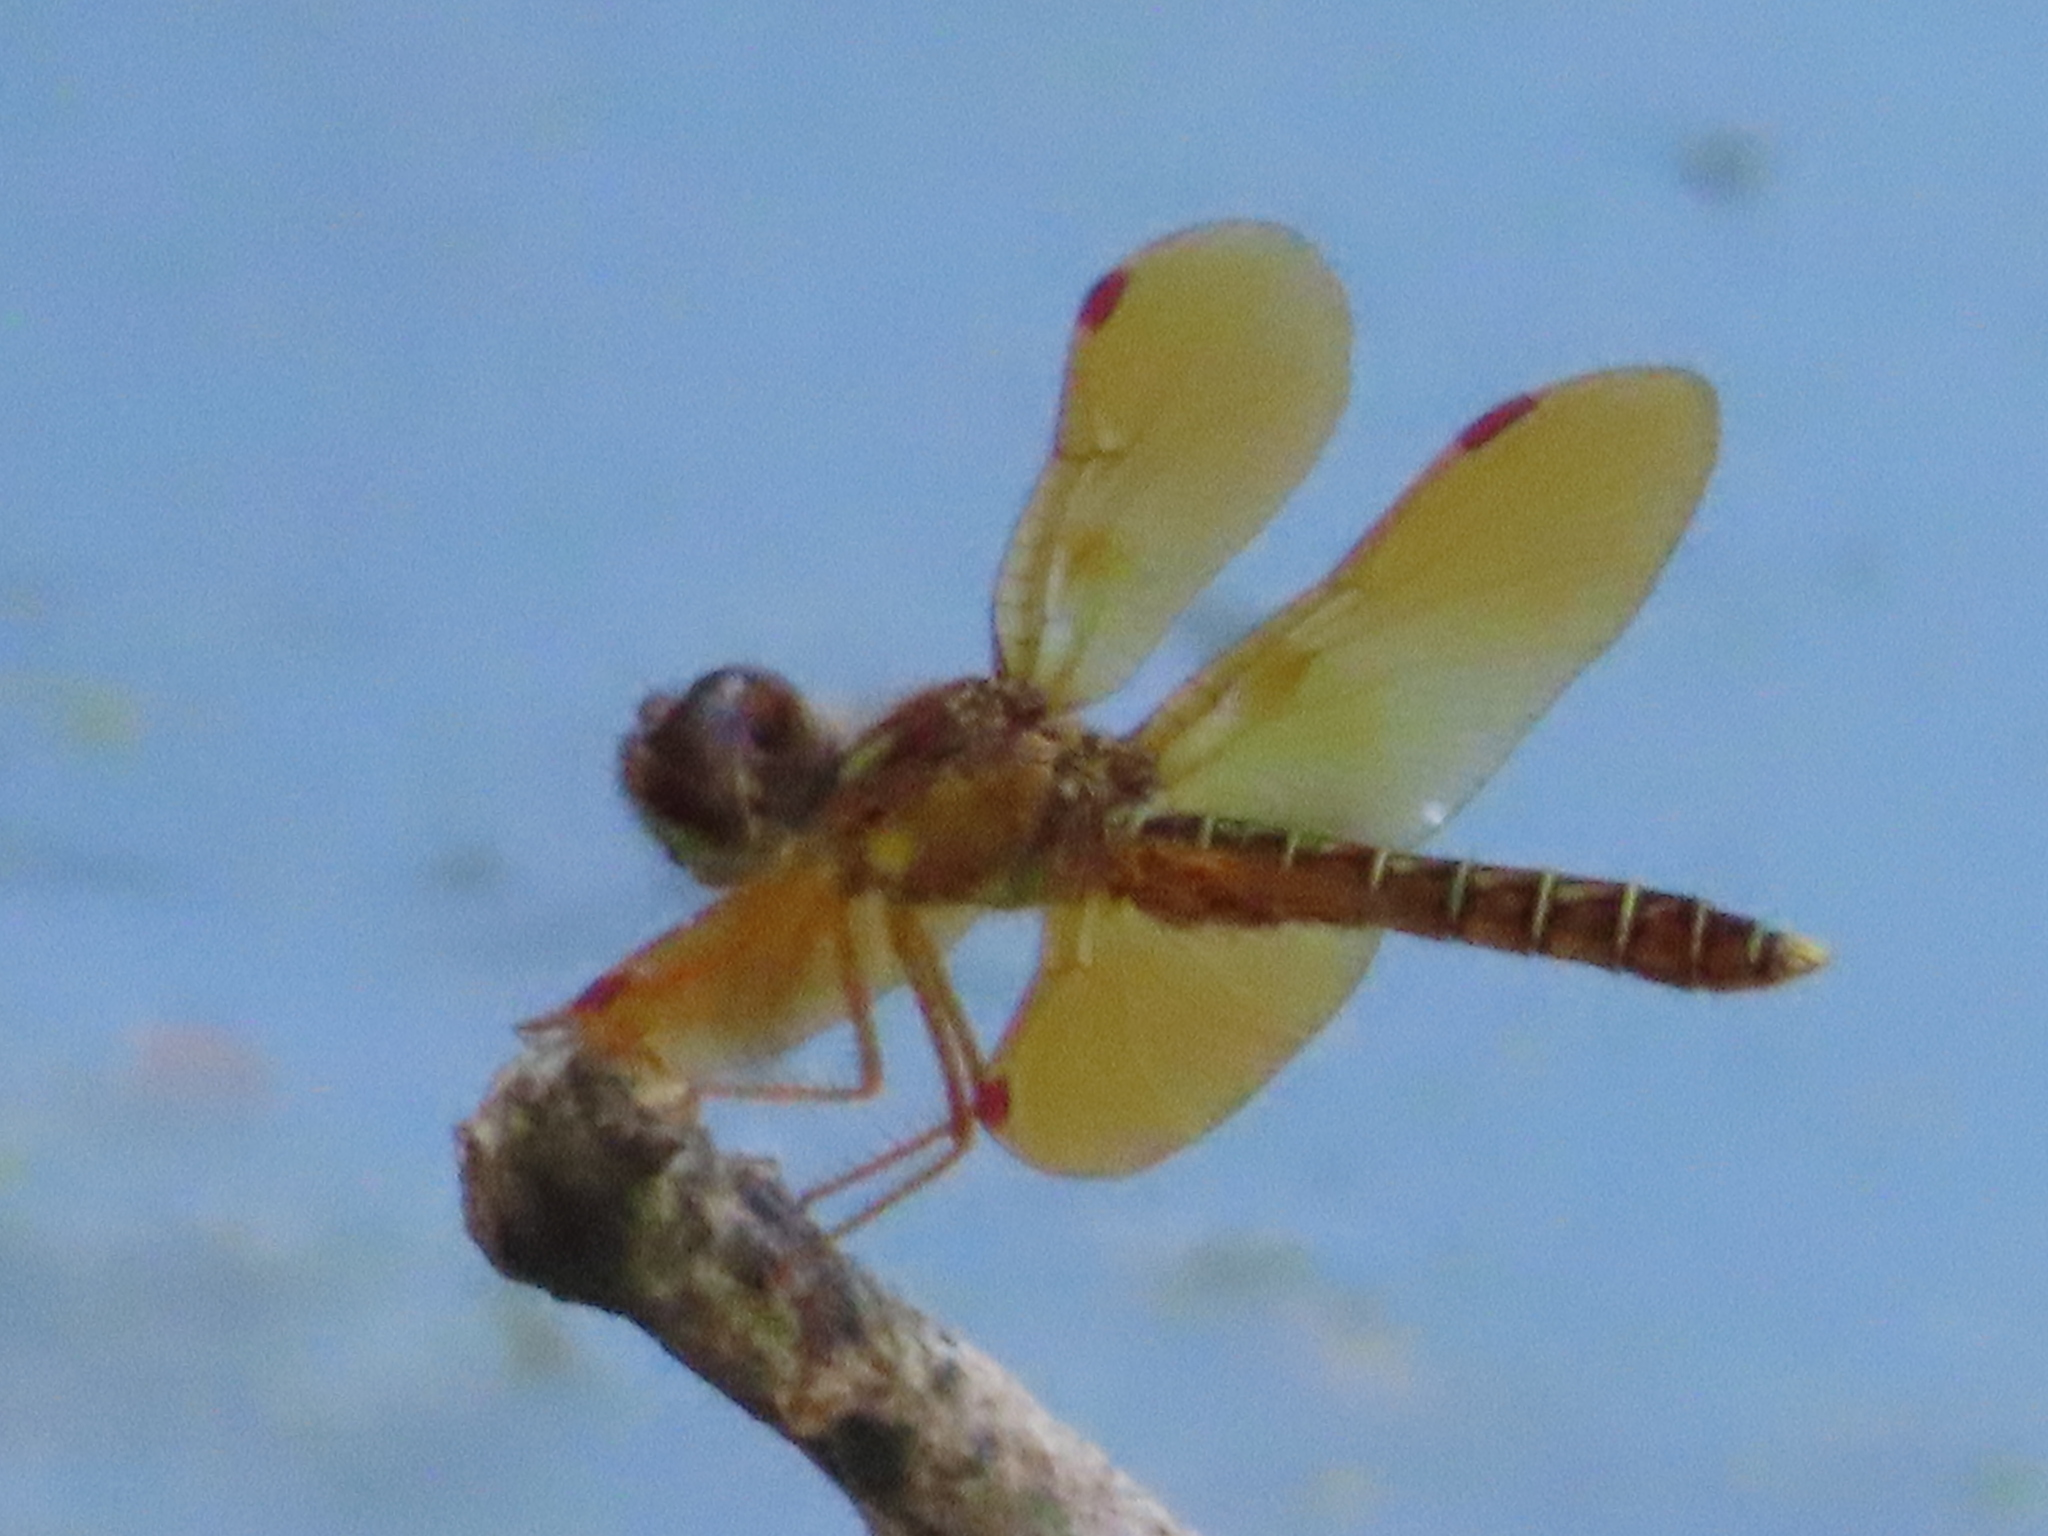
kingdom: Animalia
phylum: Arthropoda
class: Insecta
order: Odonata
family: Libellulidae
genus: Perithemis
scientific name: Perithemis tenera
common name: Eastern amberwing
